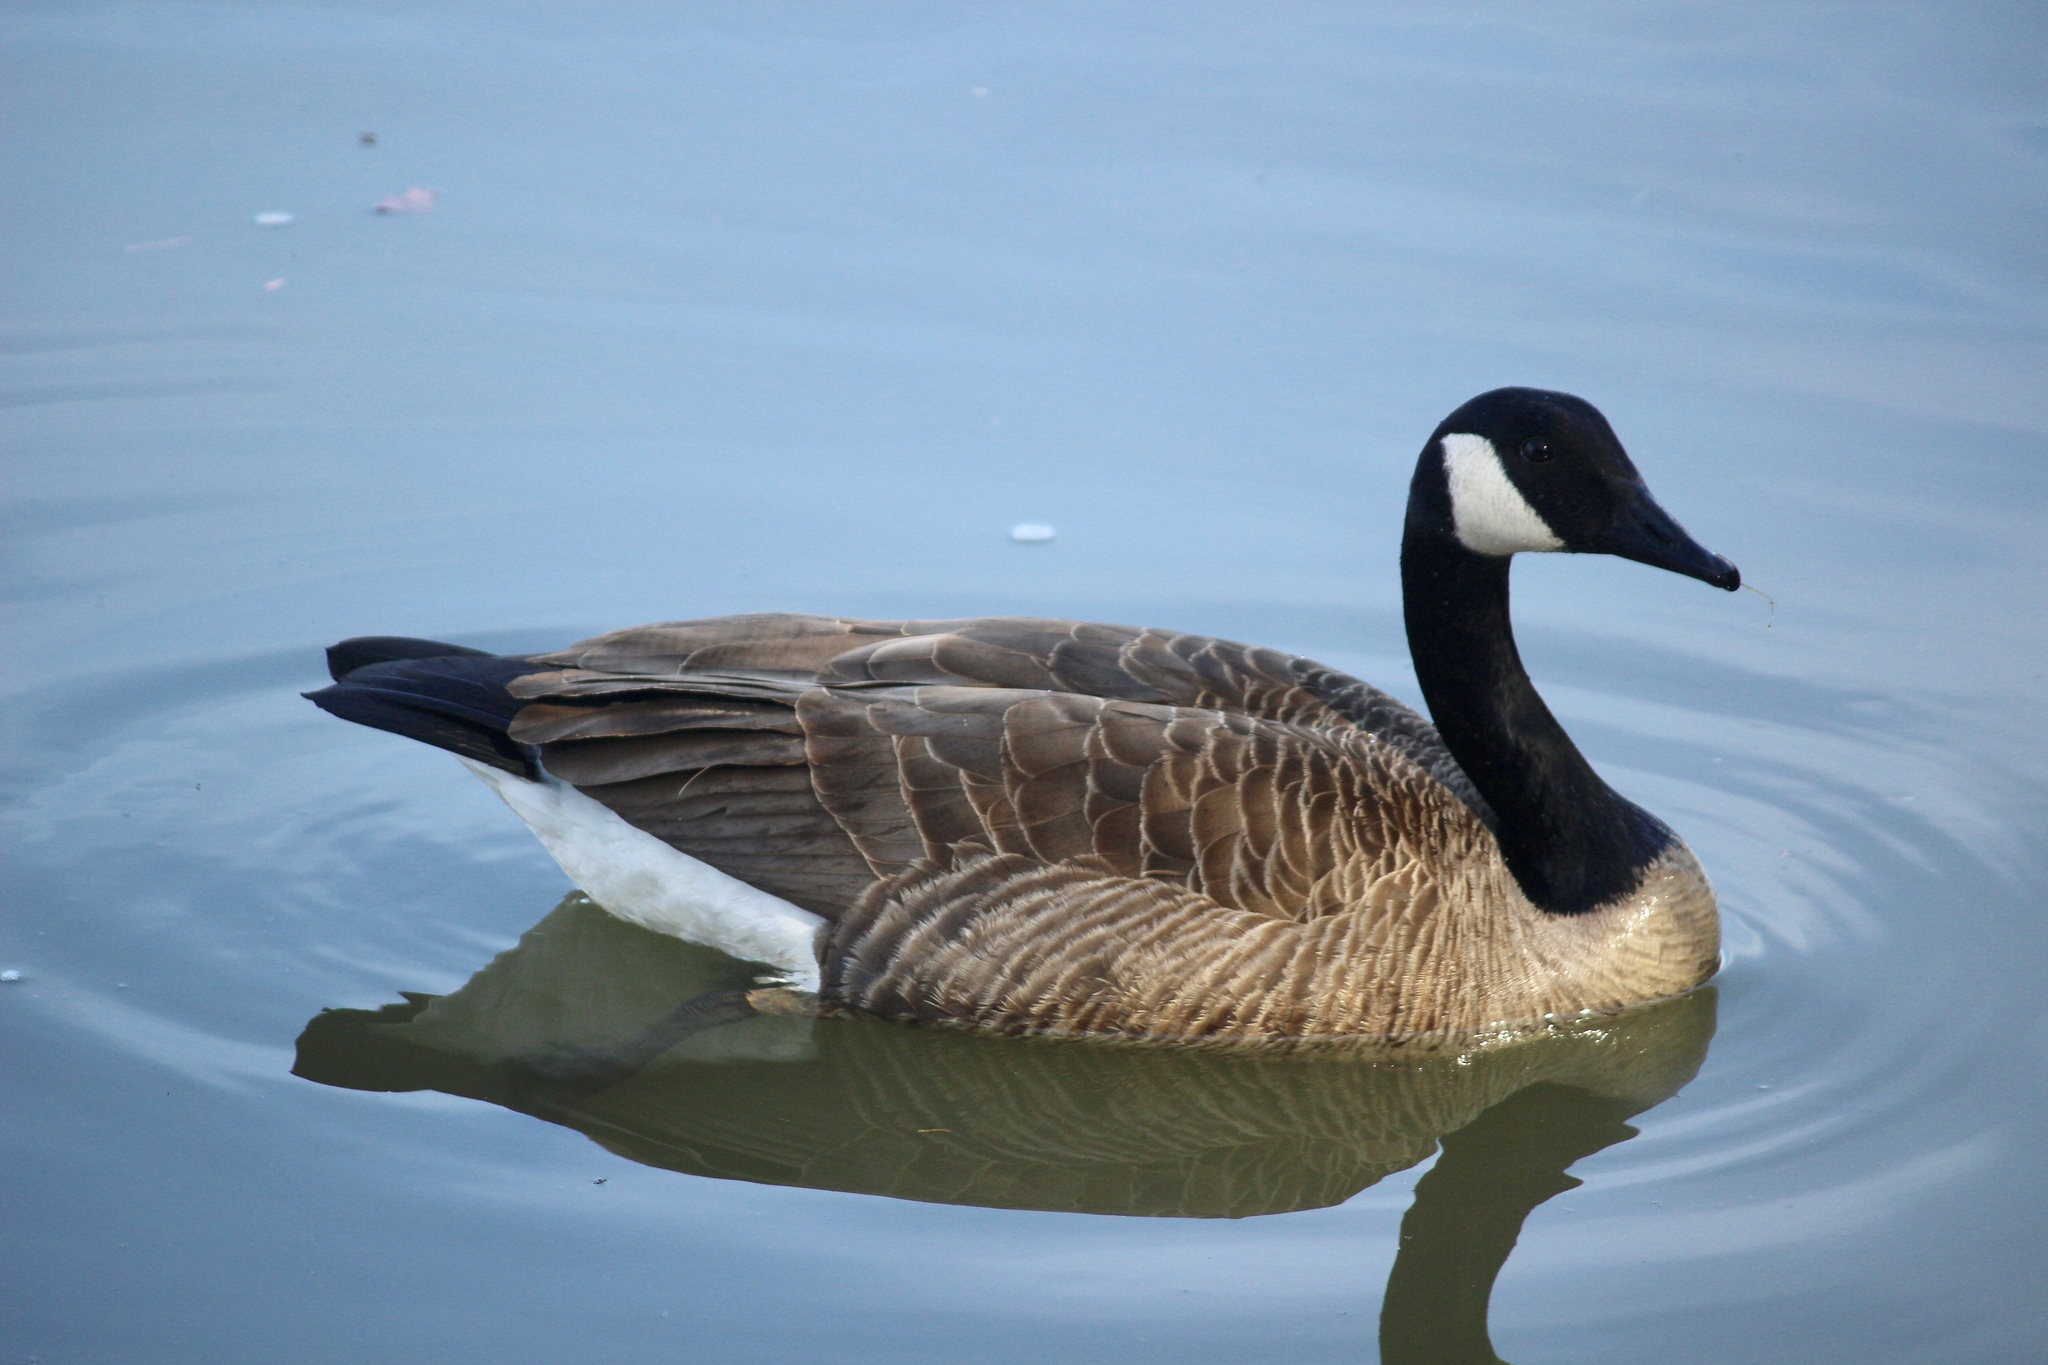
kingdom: Animalia
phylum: Chordata
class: Aves
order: Anseriformes
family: Anatidae
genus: Branta
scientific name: Branta canadensis
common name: Canada goose
